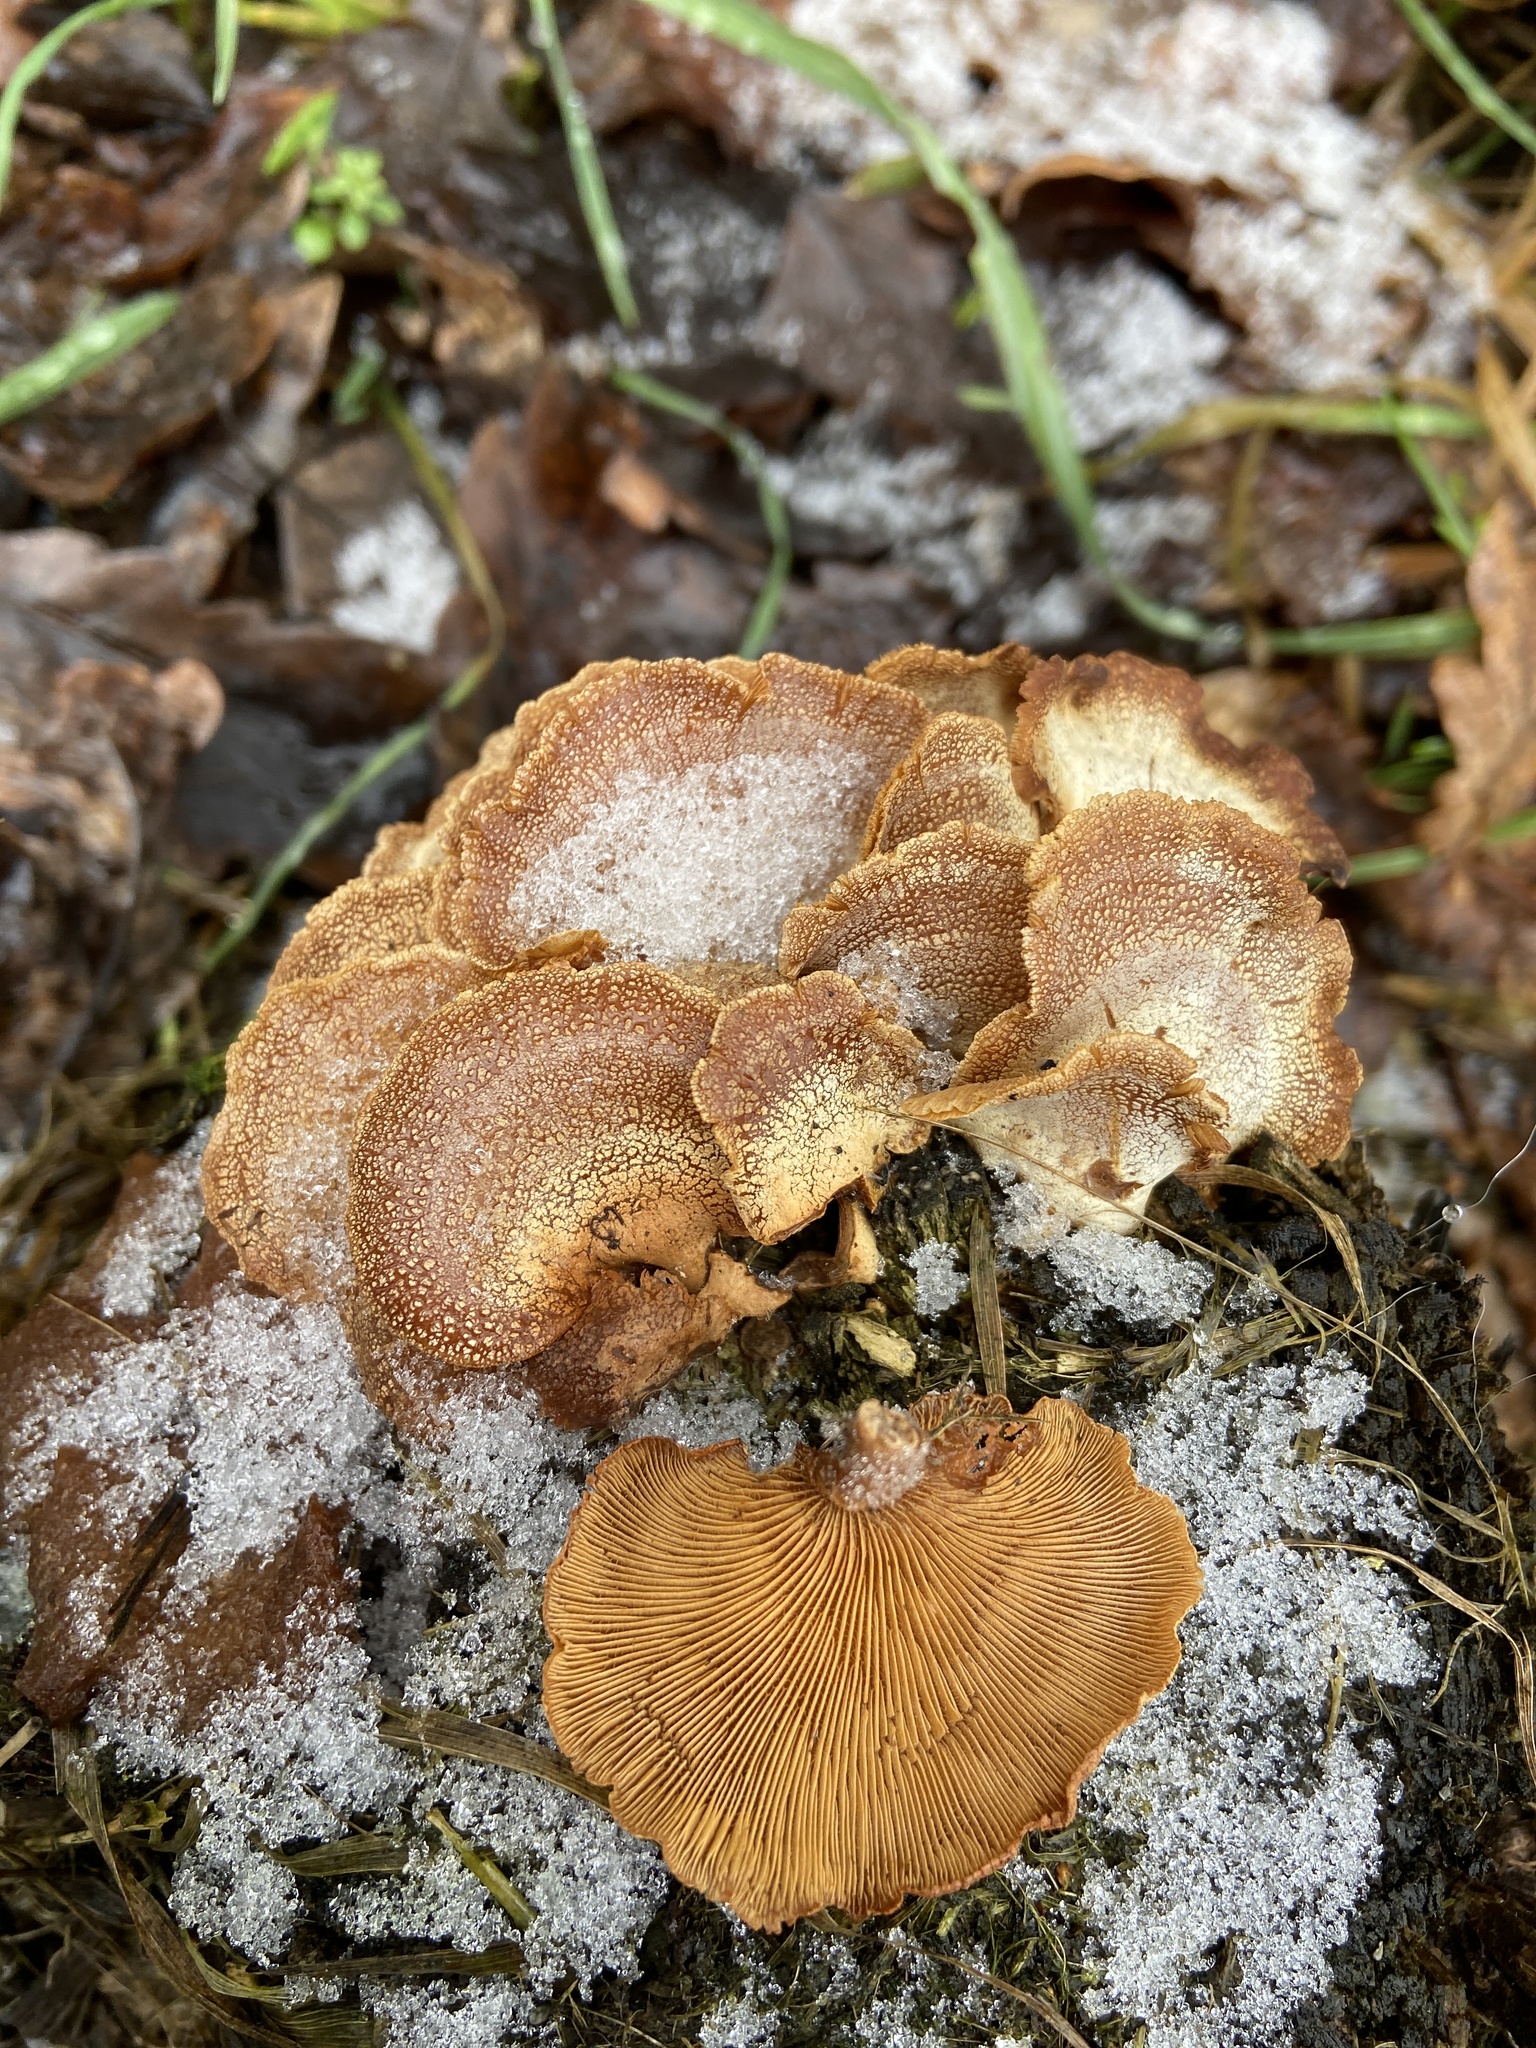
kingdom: Fungi
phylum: Basidiomycota
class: Agaricomycetes
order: Agaricales
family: Mycenaceae
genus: Panellus
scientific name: Panellus stipticus
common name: Bitter oysterling
